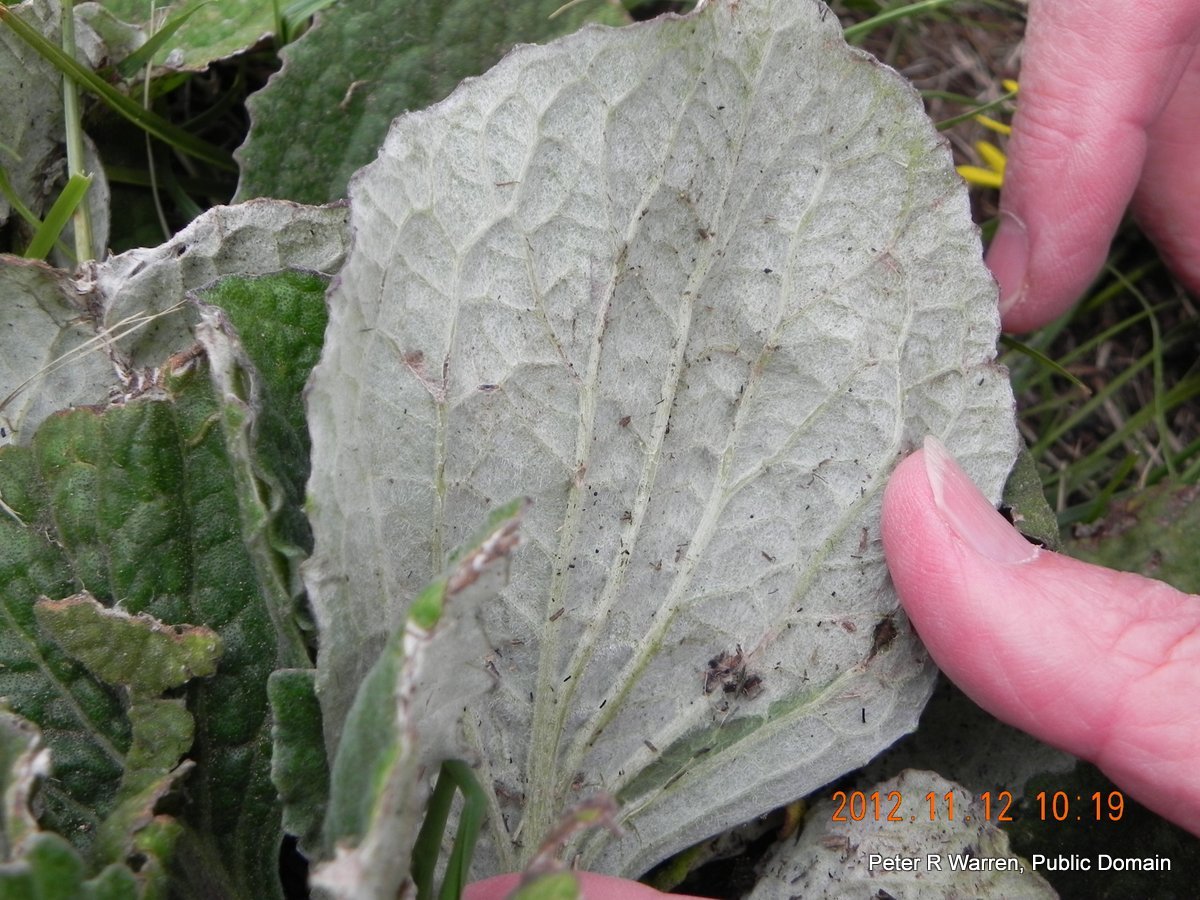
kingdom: Plantae
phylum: Tracheophyta
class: Magnoliopsida
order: Asterales
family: Asteraceae
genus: Haplocarpha
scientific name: Haplocarpha scaposa
